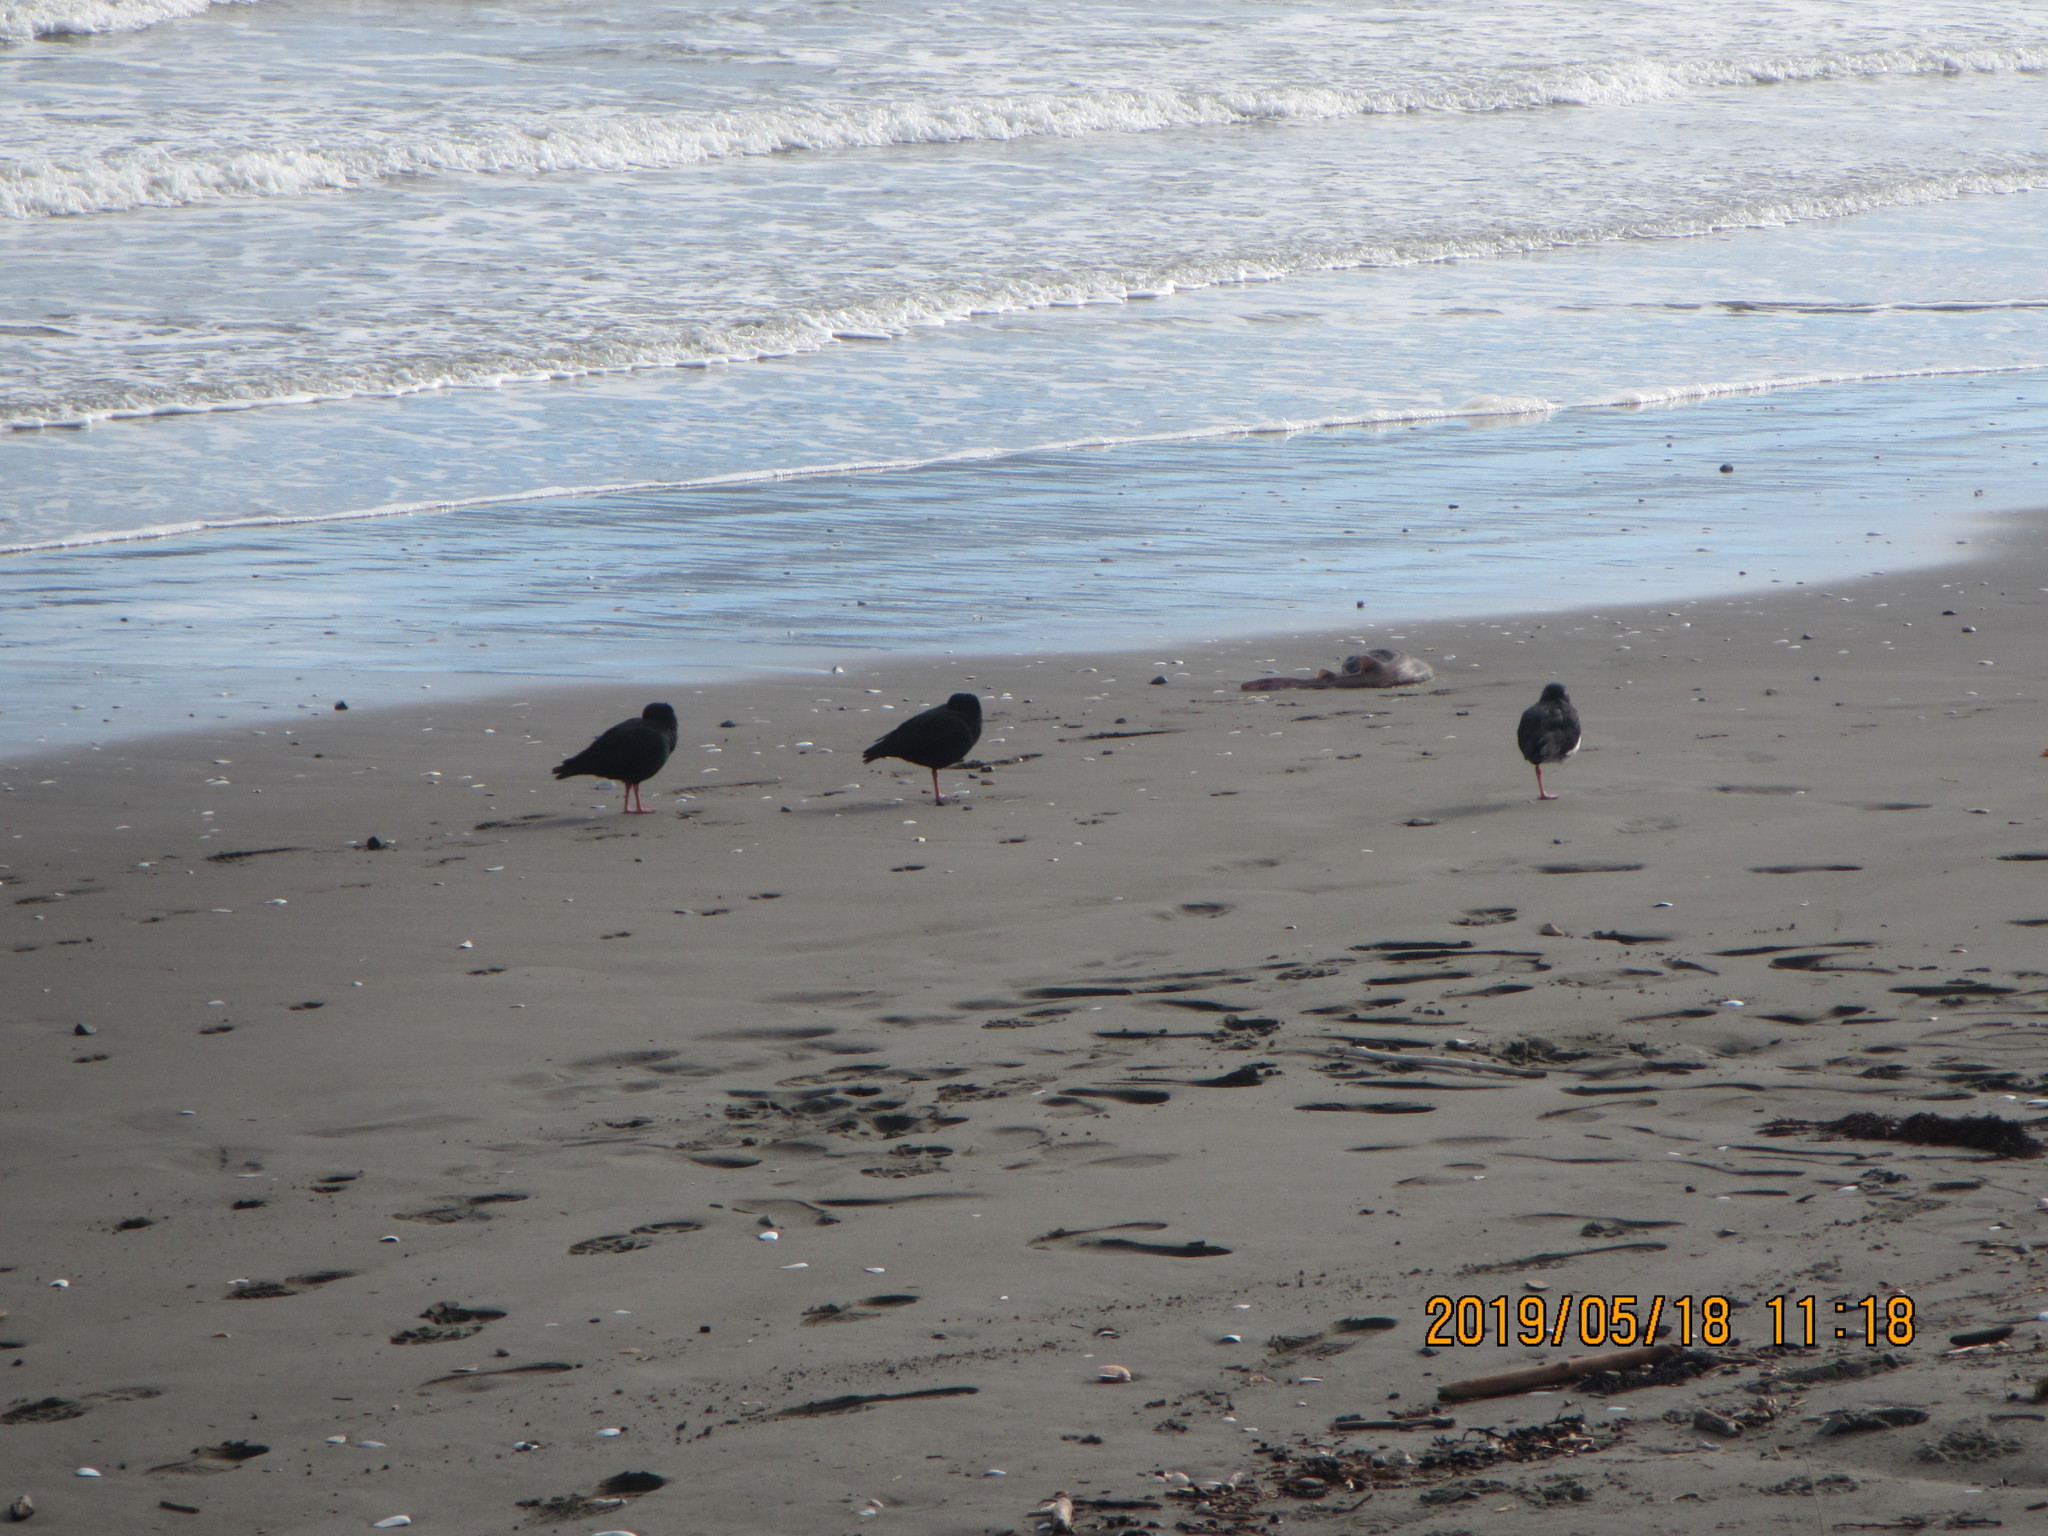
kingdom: Animalia
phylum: Chordata
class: Aves
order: Charadriiformes
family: Haematopodidae
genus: Haematopus
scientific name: Haematopus unicolor
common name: Variable oystercatcher
